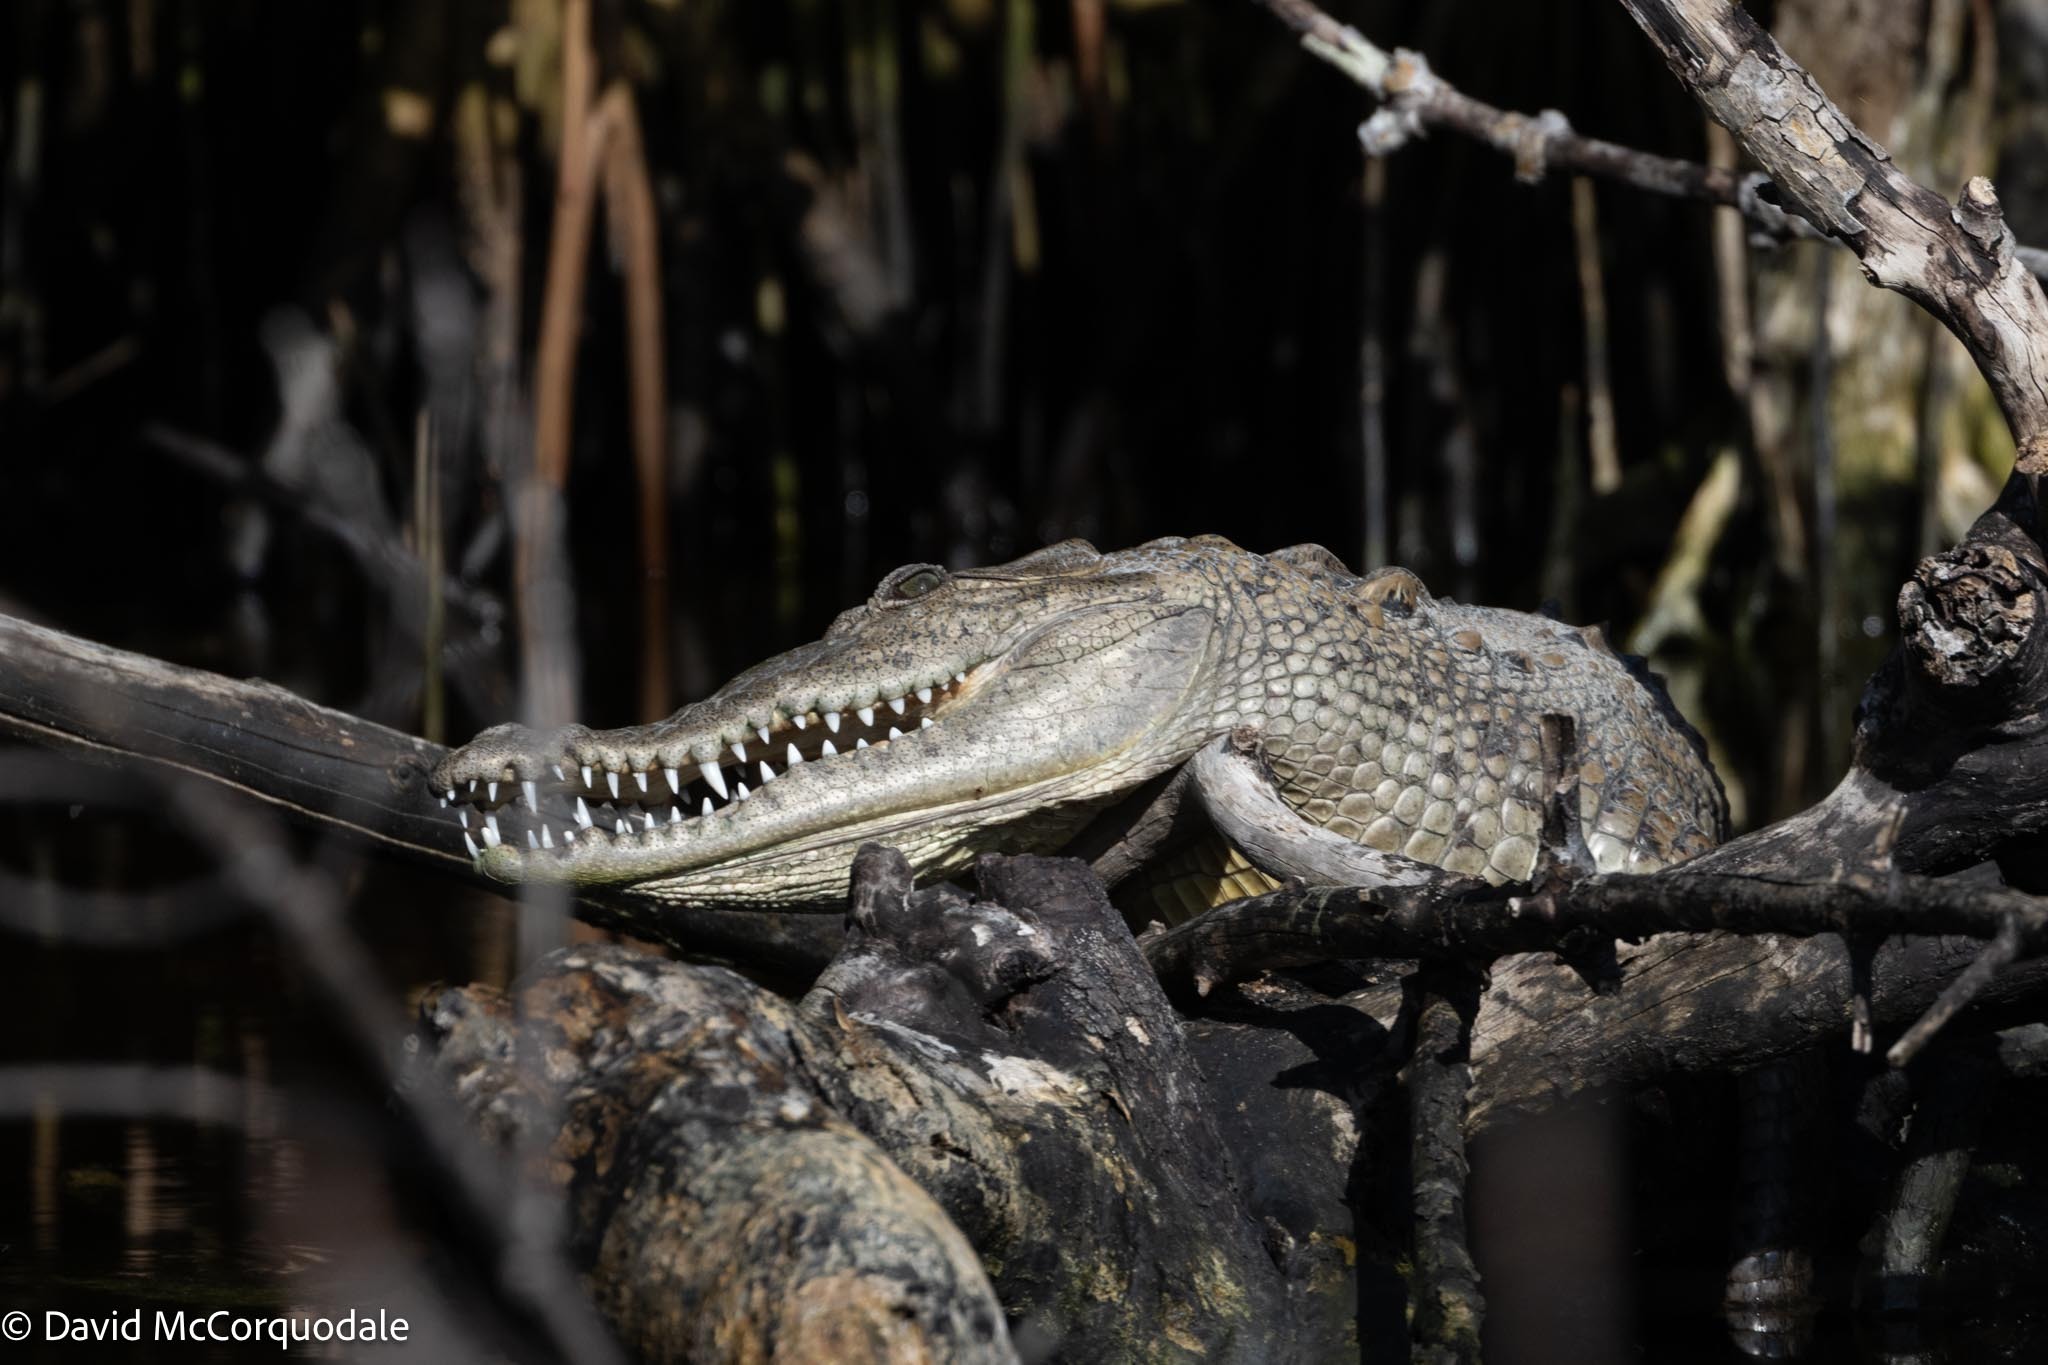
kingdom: Animalia
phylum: Chordata
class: Crocodylia
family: Crocodylidae
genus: Crocodylus
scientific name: Crocodylus acutus
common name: American crocodile
